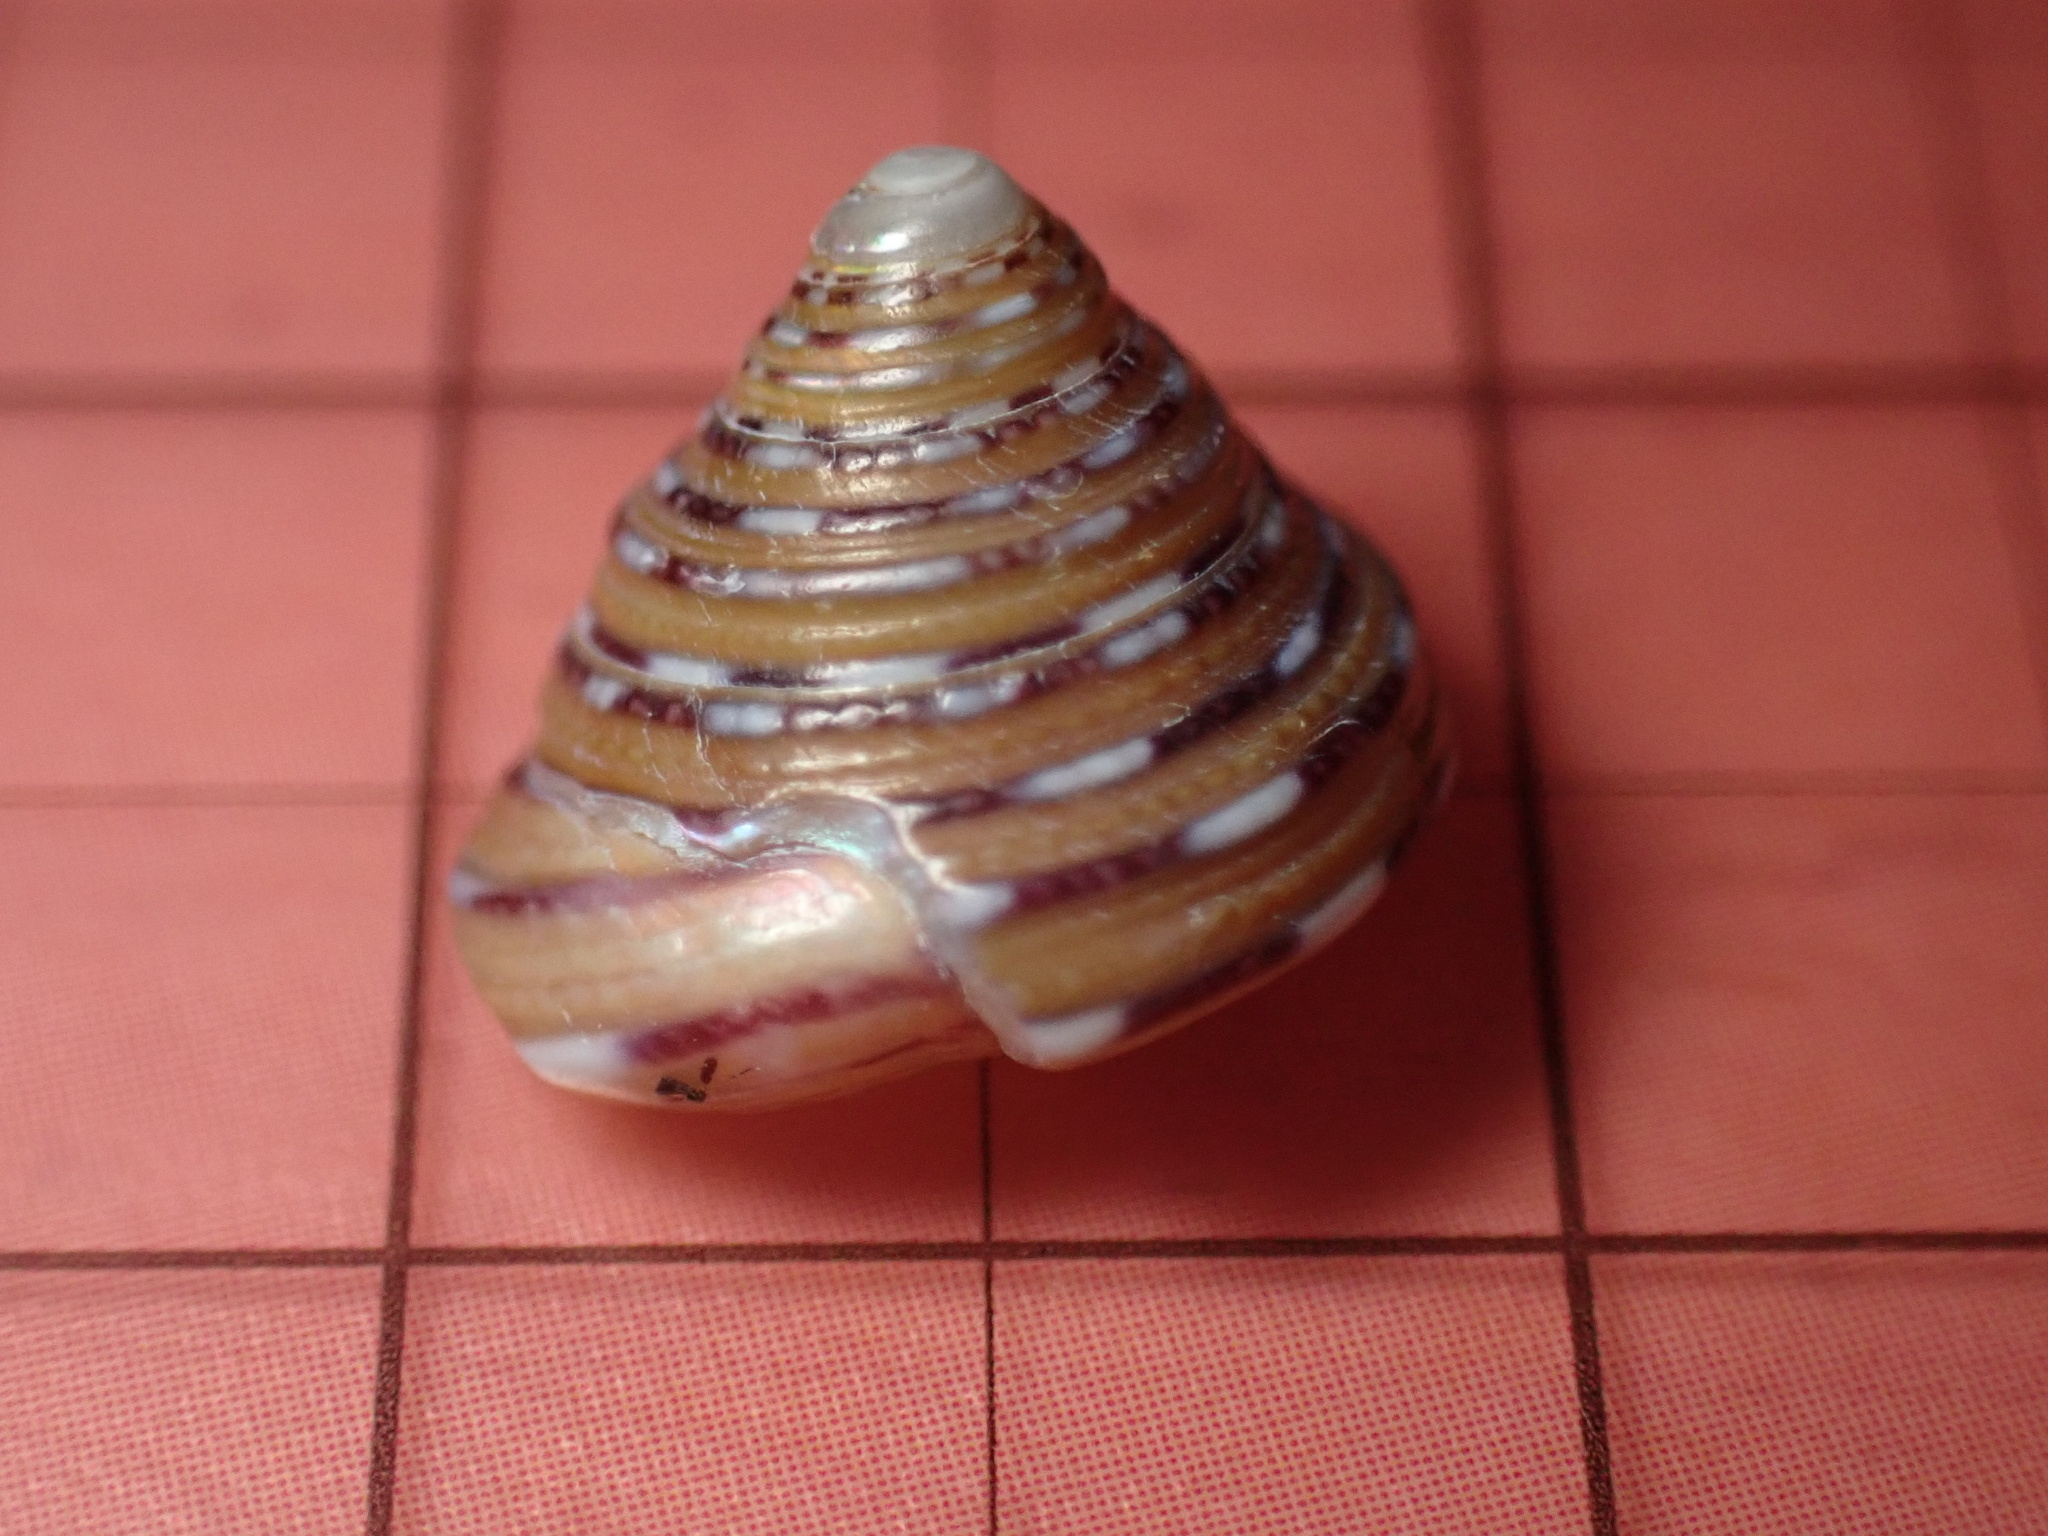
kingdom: Animalia
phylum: Mollusca
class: Gastropoda
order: Trochida
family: Calliostomatidae
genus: Calliostoma
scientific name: Calliostoma tricolor
